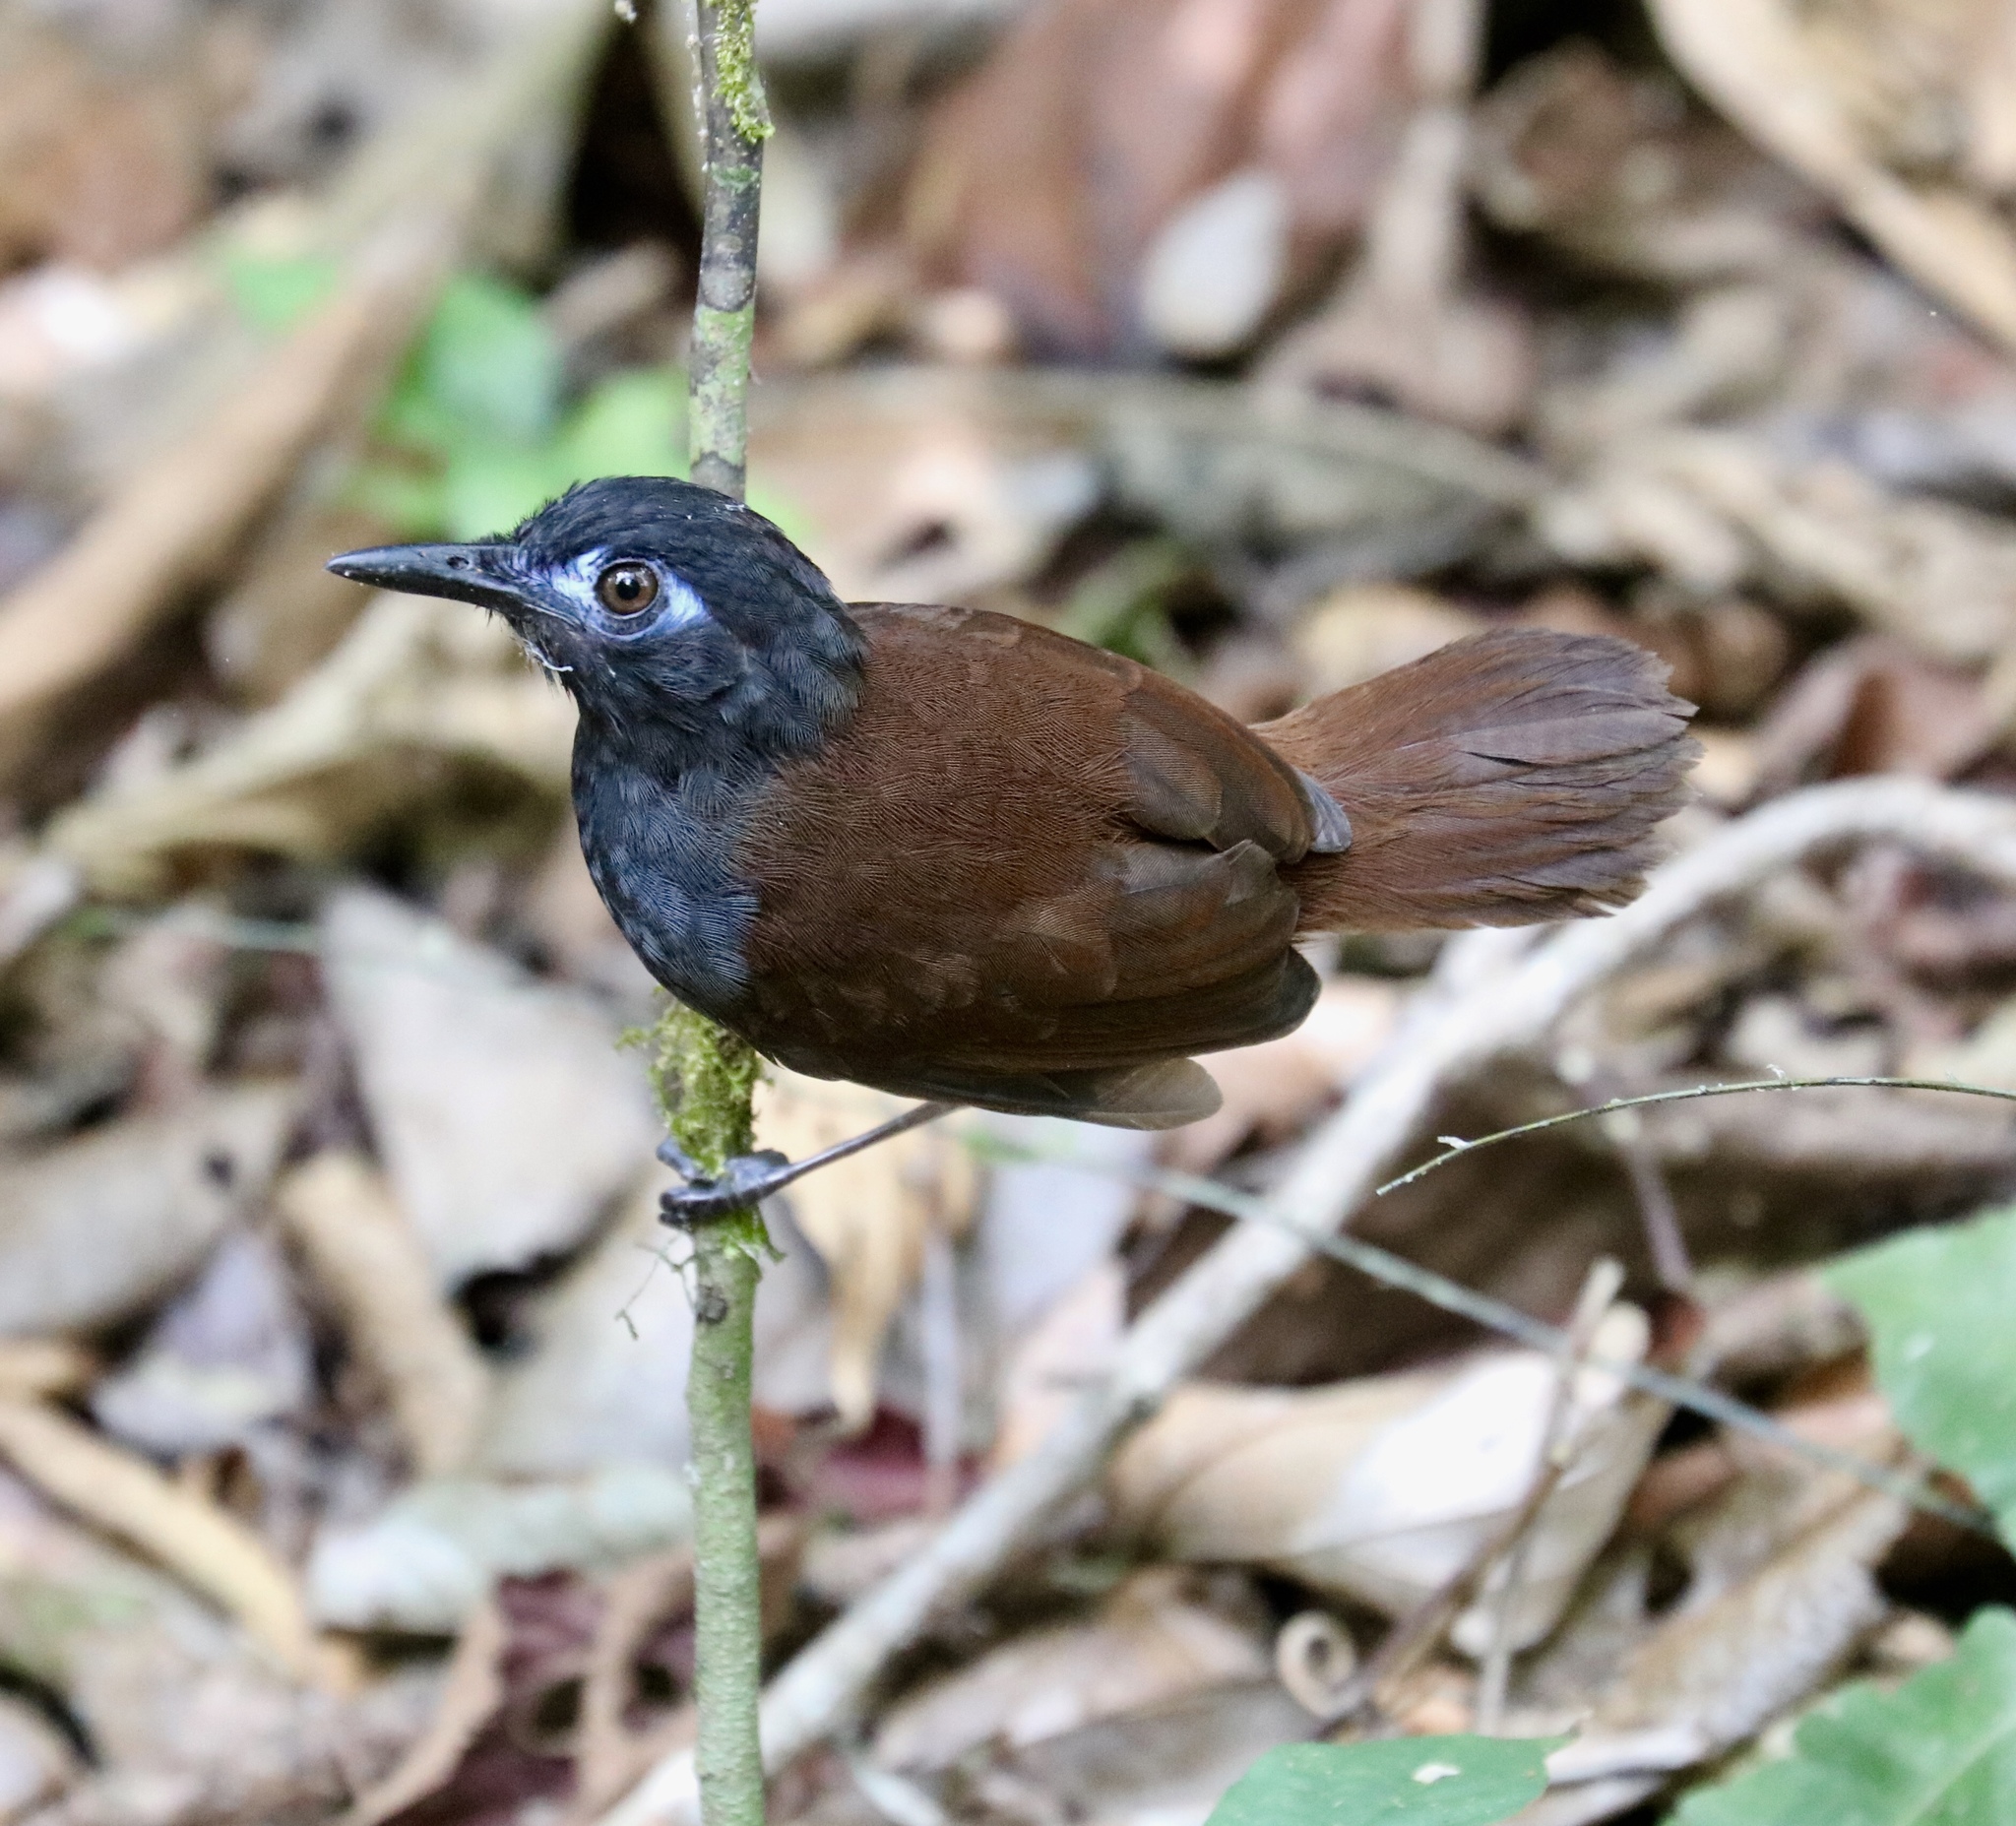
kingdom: Animalia
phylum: Chordata
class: Aves
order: Passeriformes
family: Thamnophilidae
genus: Myrmeciza
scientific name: Myrmeciza exsul
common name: Chestnut-backed antbird
